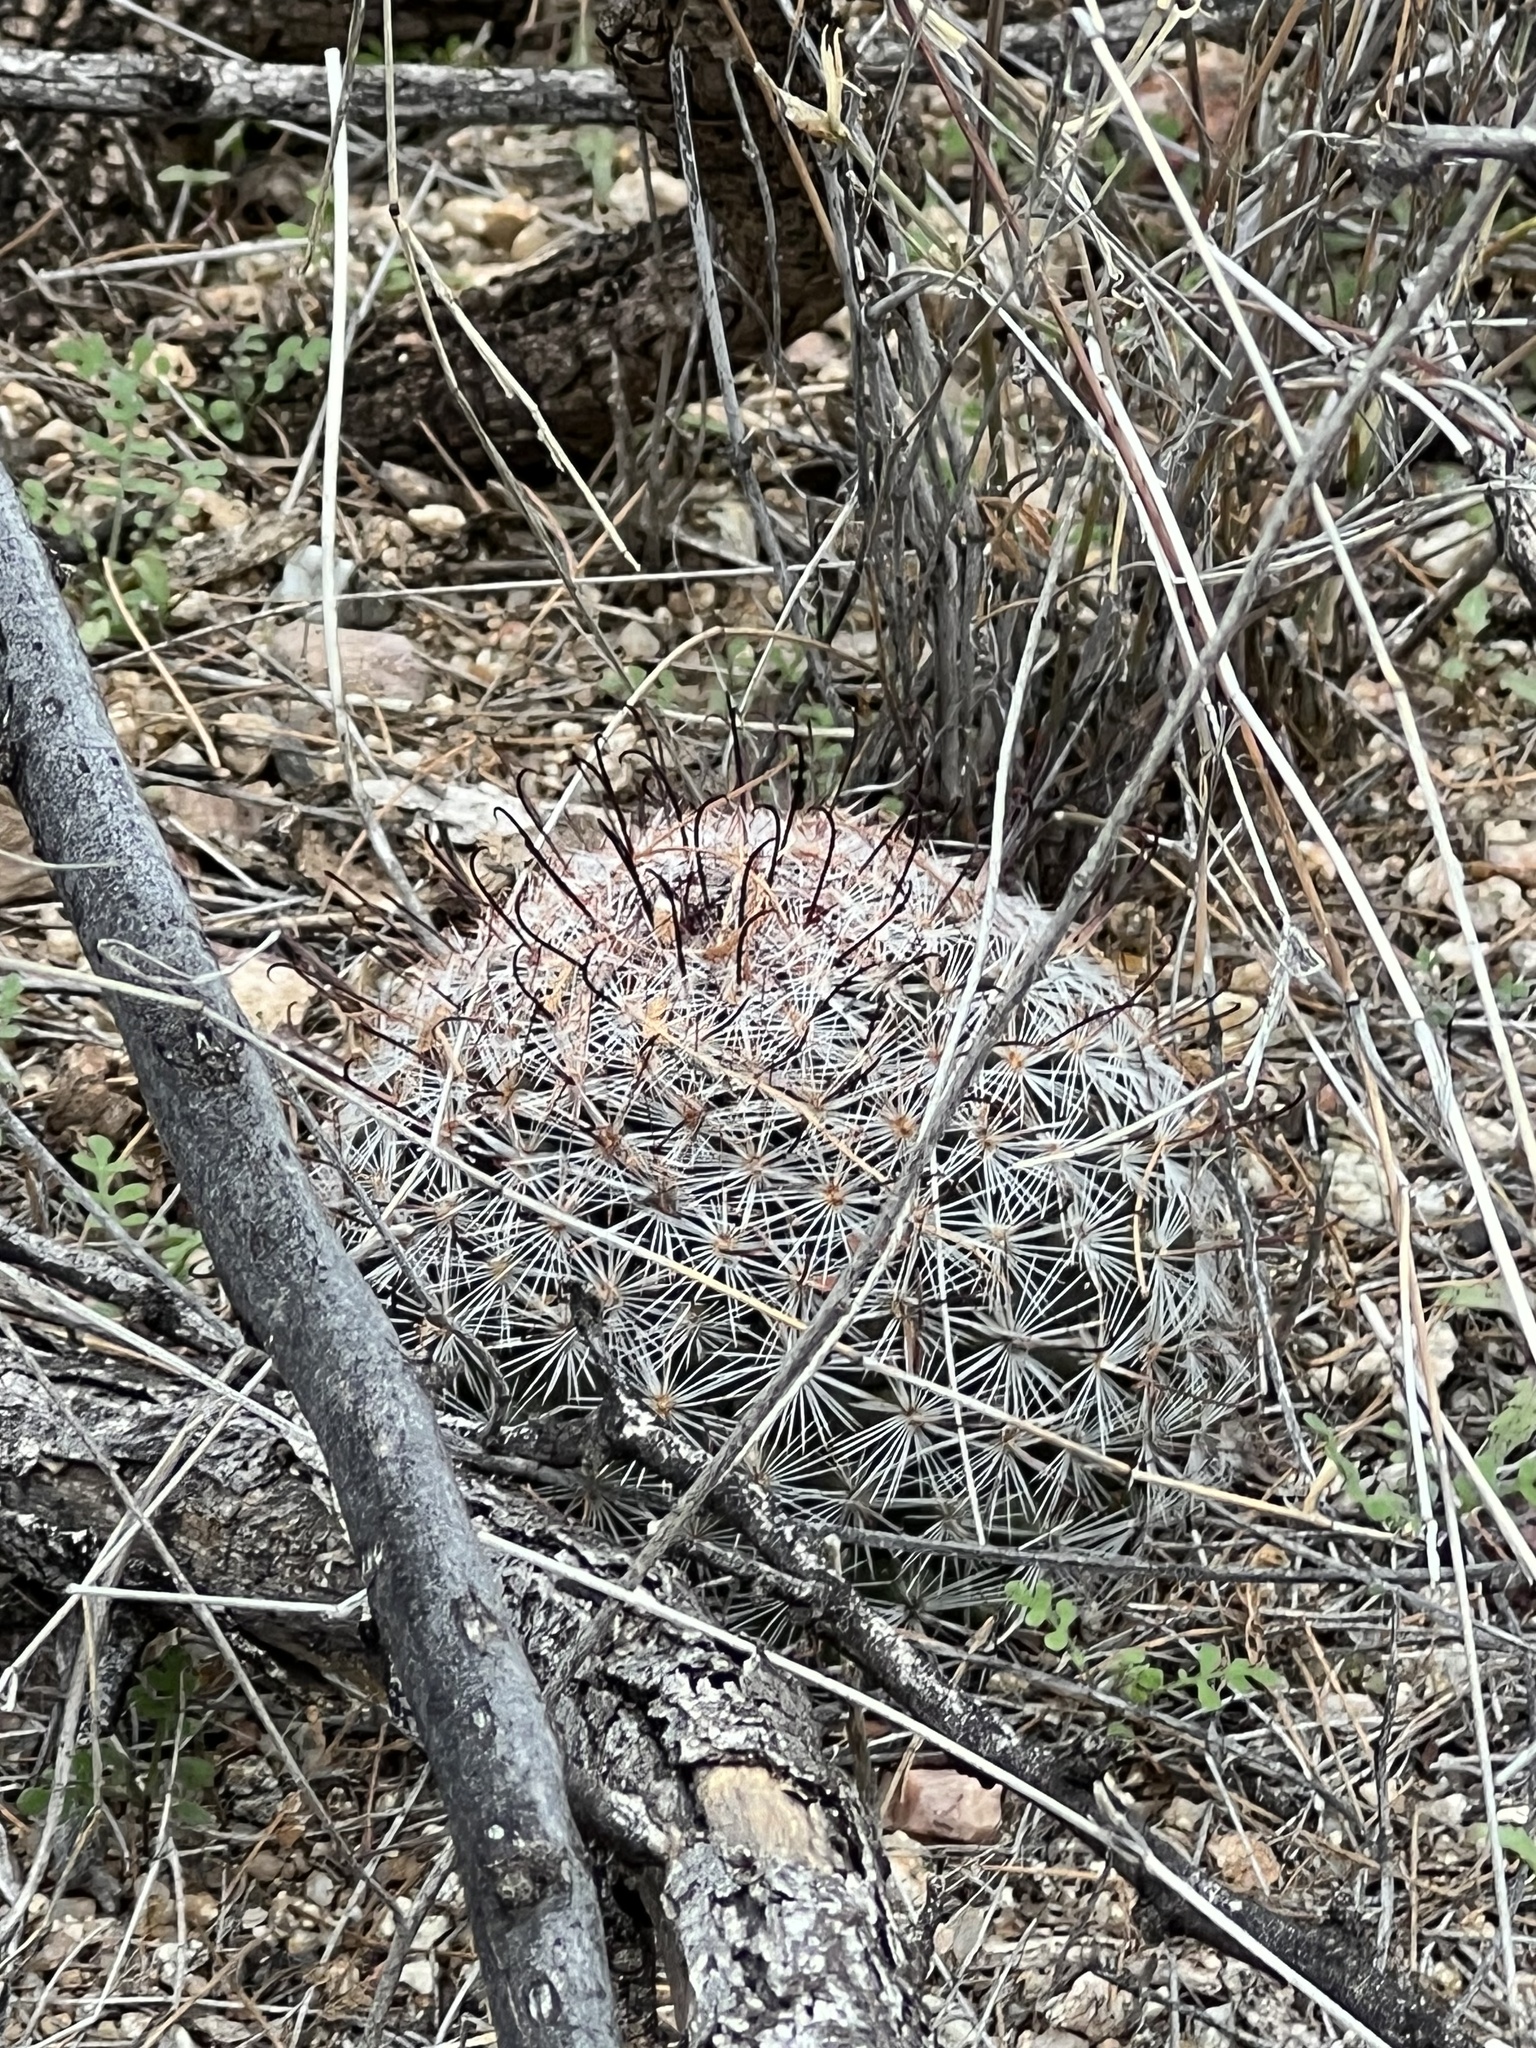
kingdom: Plantae
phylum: Tracheophyta
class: Magnoliopsida
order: Caryophyllales
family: Cactaceae
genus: Cochemiea
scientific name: Cochemiea grahamii
